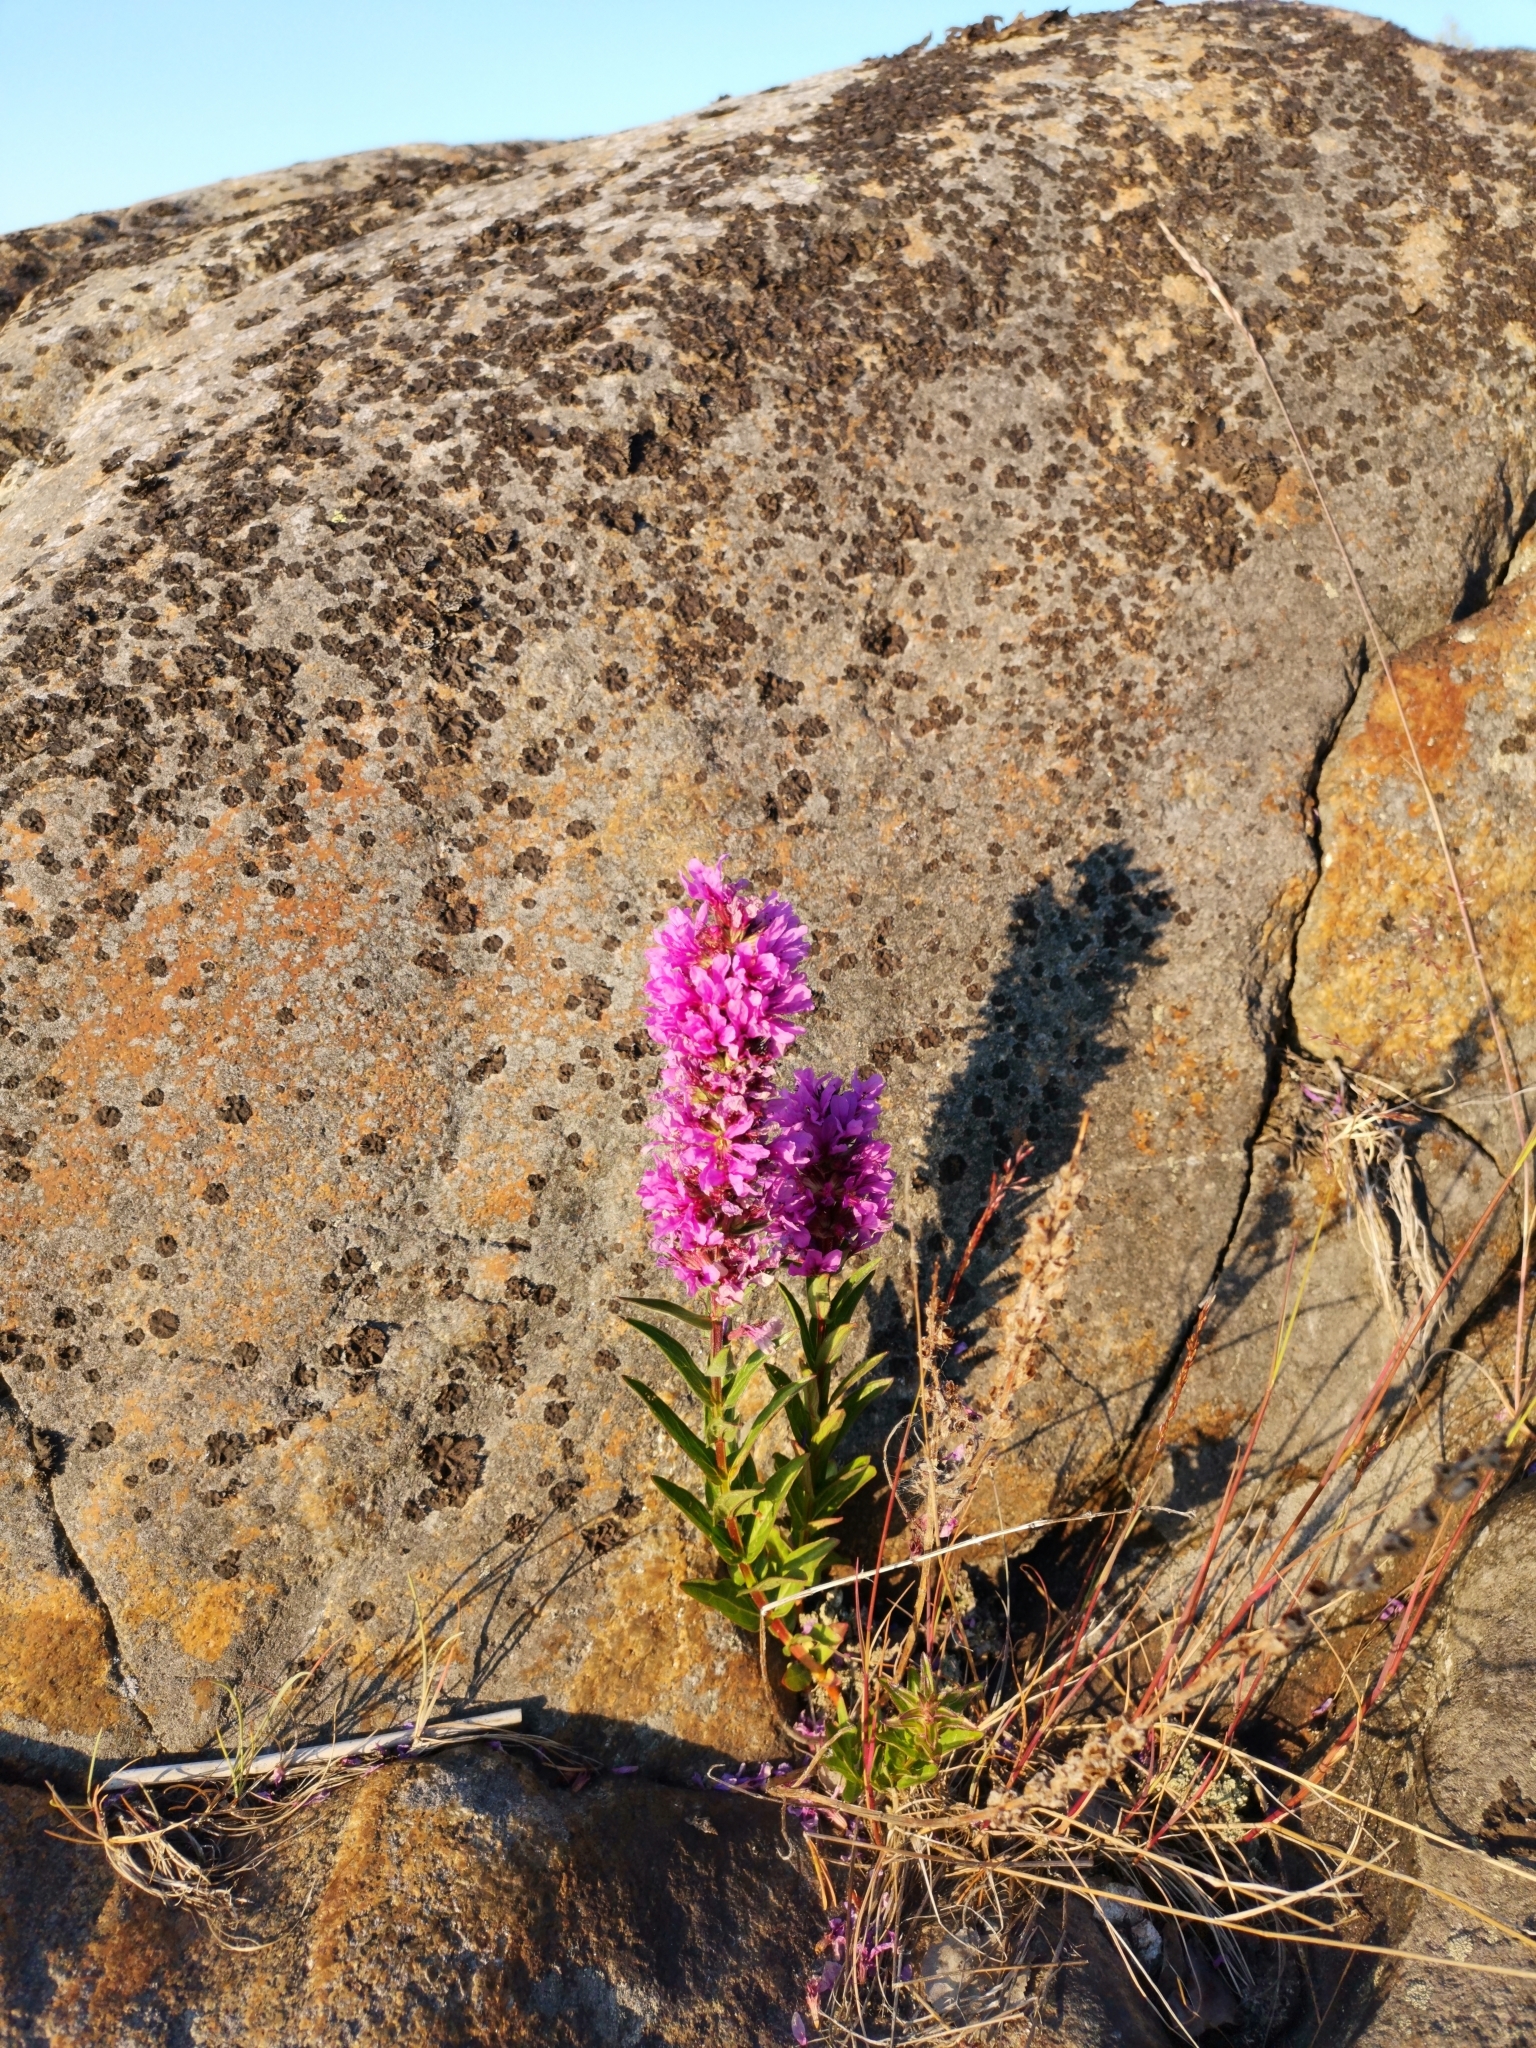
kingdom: Plantae
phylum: Tracheophyta
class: Magnoliopsida
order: Myrtales
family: Lythraceae
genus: Lythrum
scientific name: Lythrum salicaria
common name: Purple loosestrife
